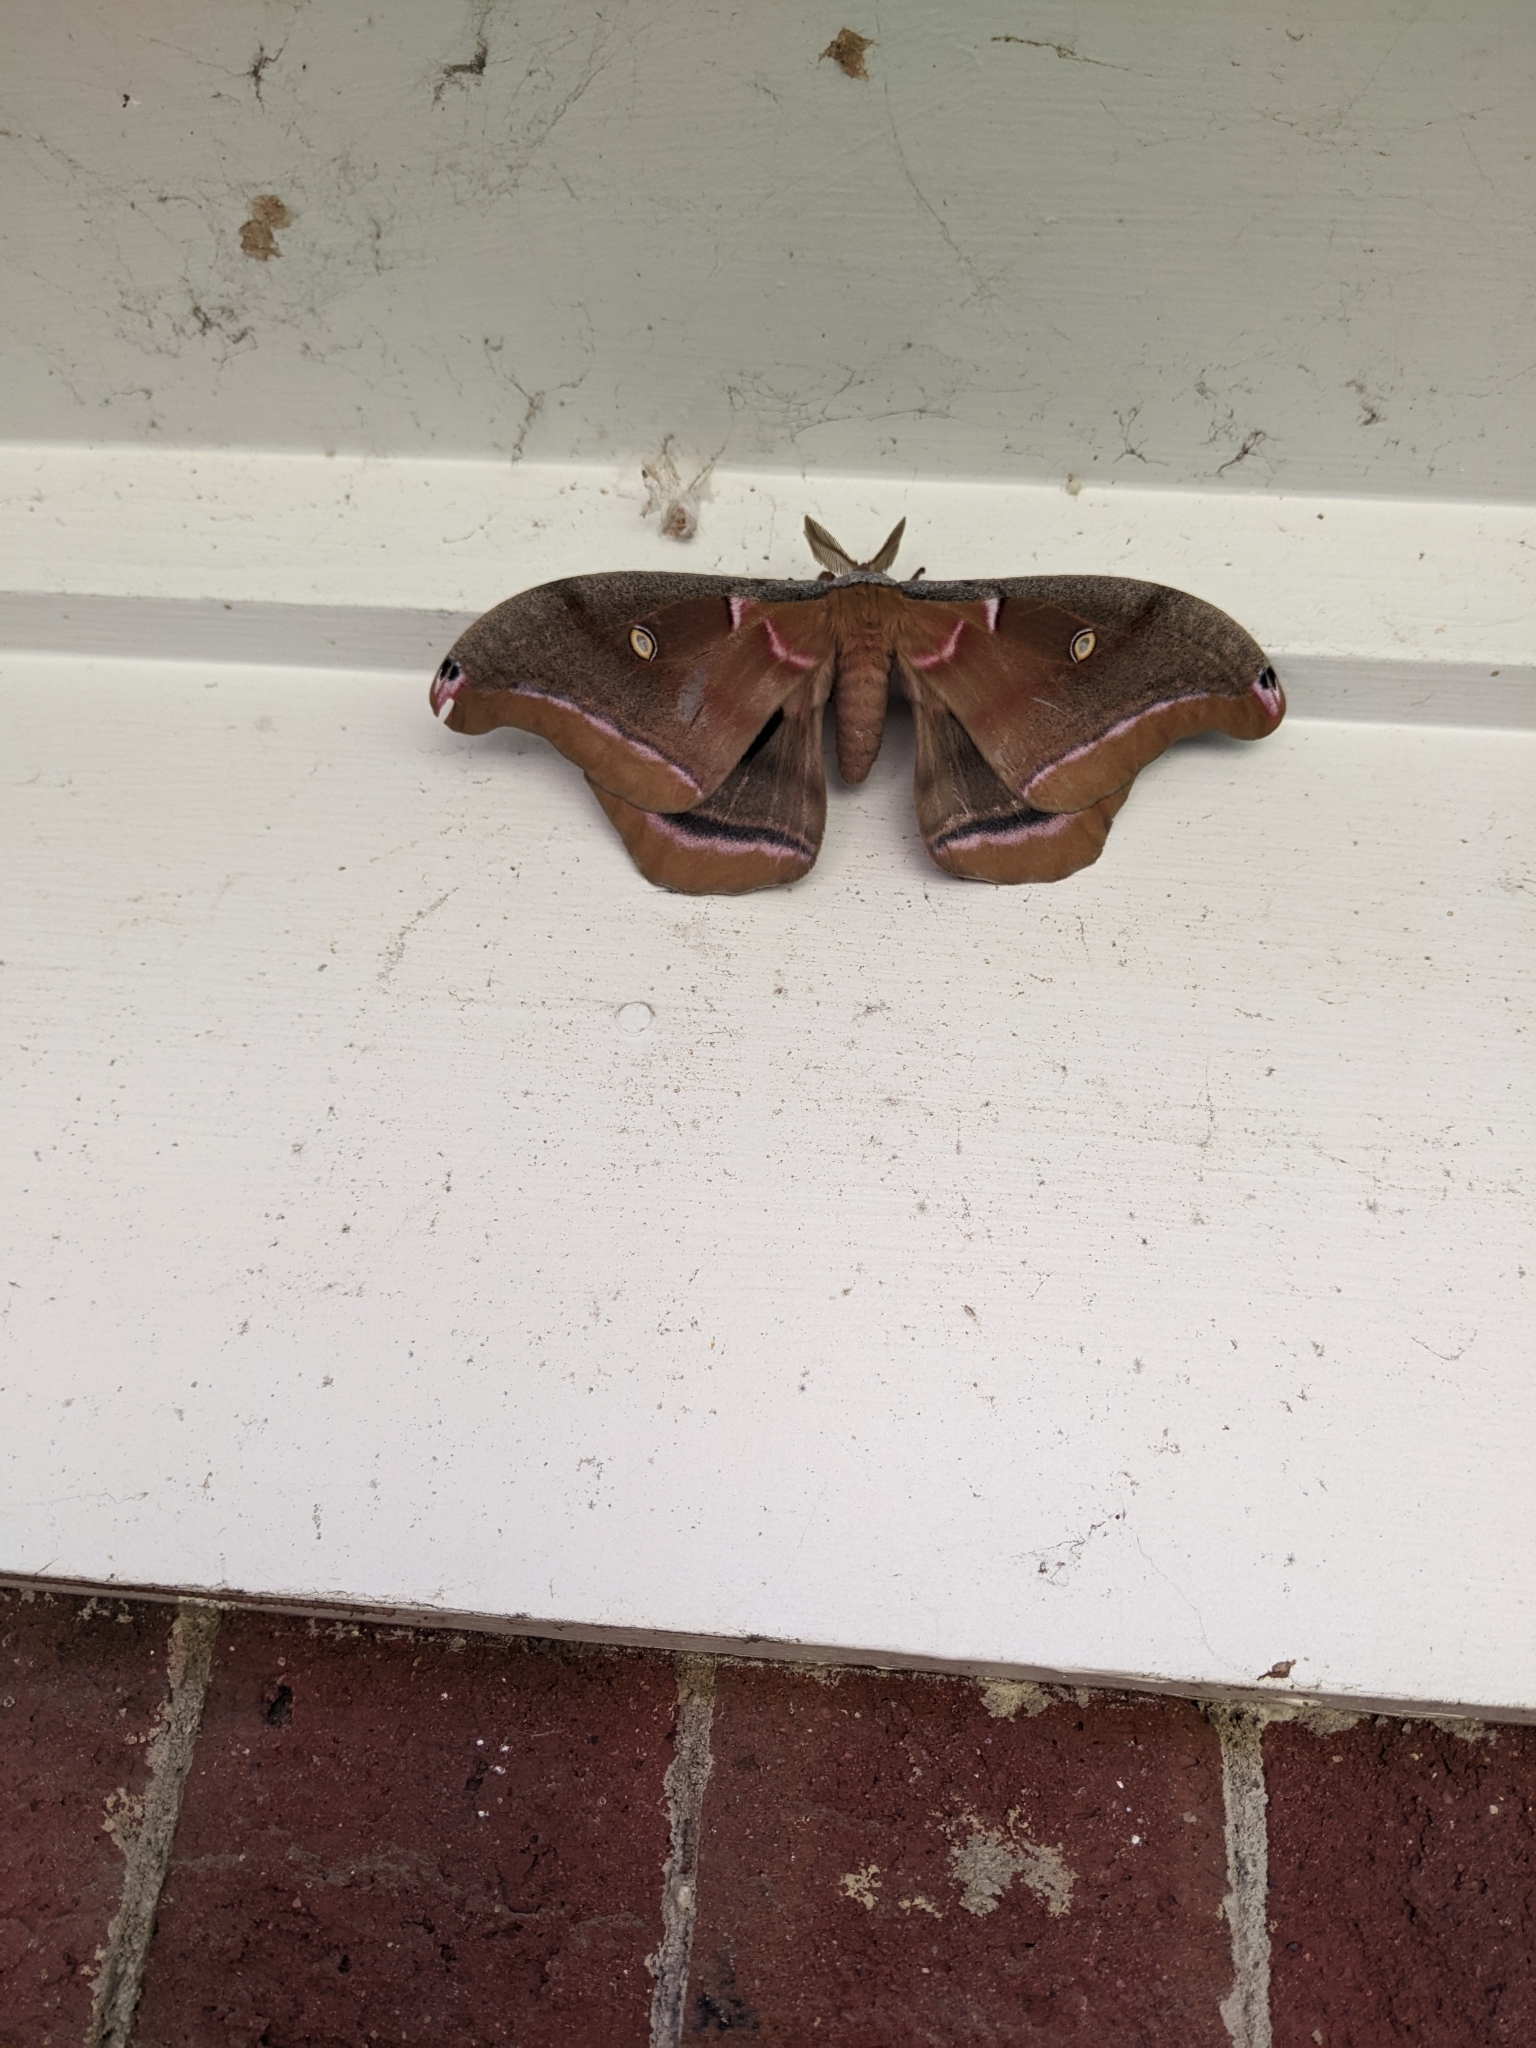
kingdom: Animalia
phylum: Arthropoda
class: Insecta
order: Lepidoptera
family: Saturniidae
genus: Antheraea
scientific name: Antheraea polyphemus
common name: Polyphemus moth
